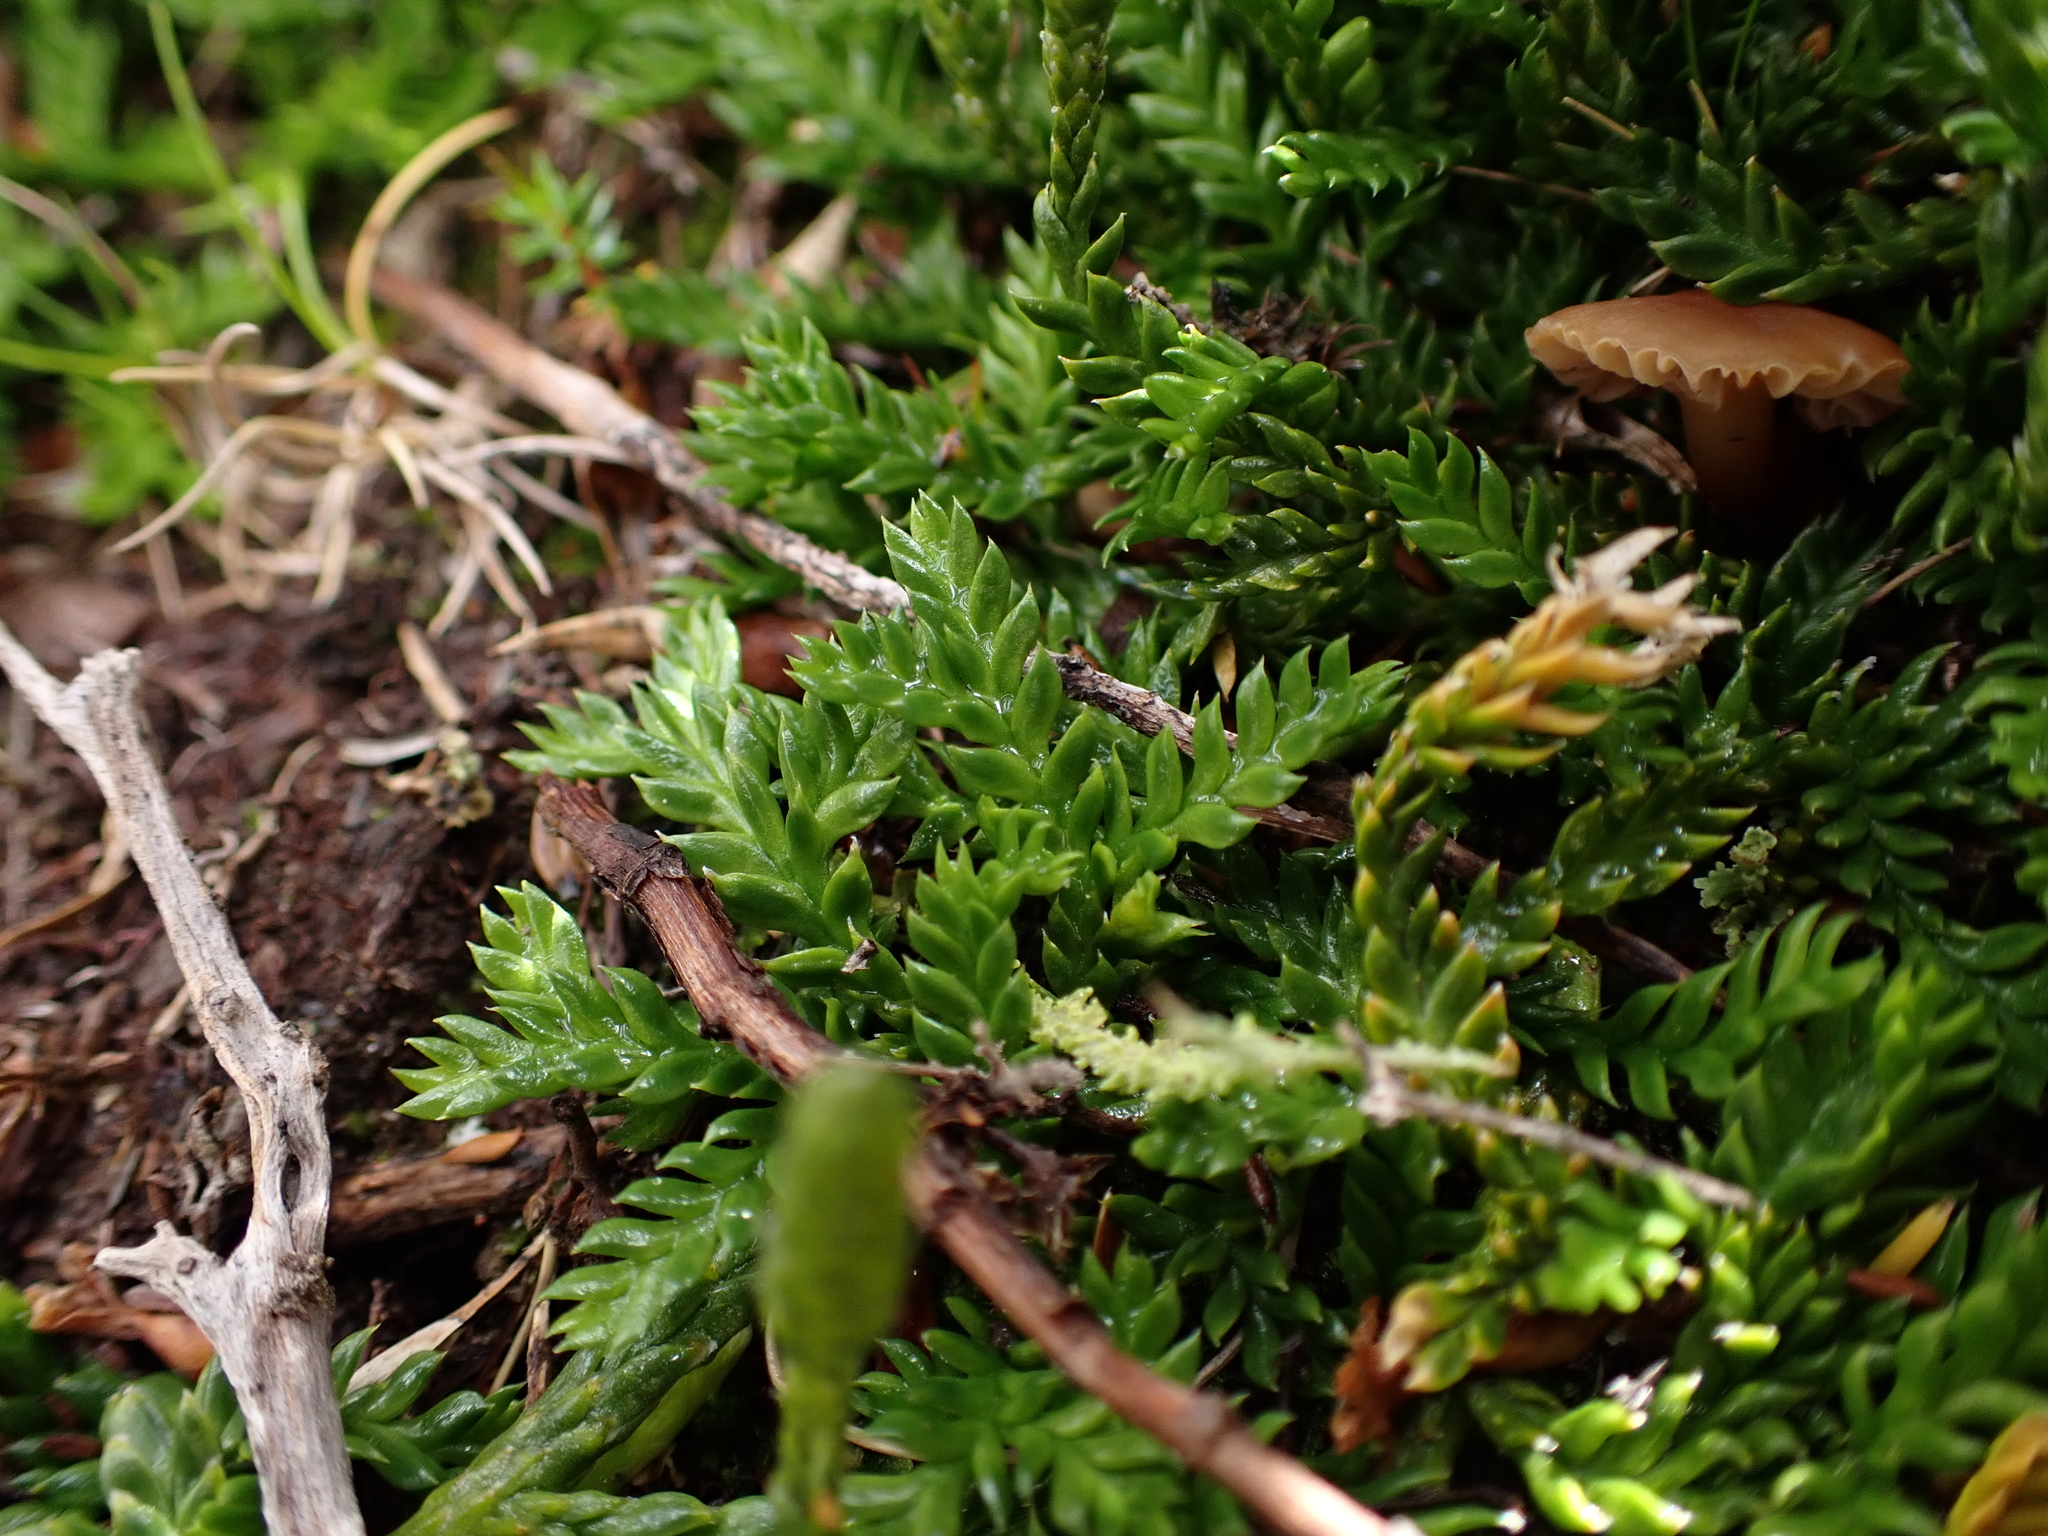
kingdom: Plantae
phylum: Tracheophyta
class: Lycopodiopsida
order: Lycopodiales
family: Lycopodiaceae
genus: Diphasium
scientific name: Diphasium scariosum
